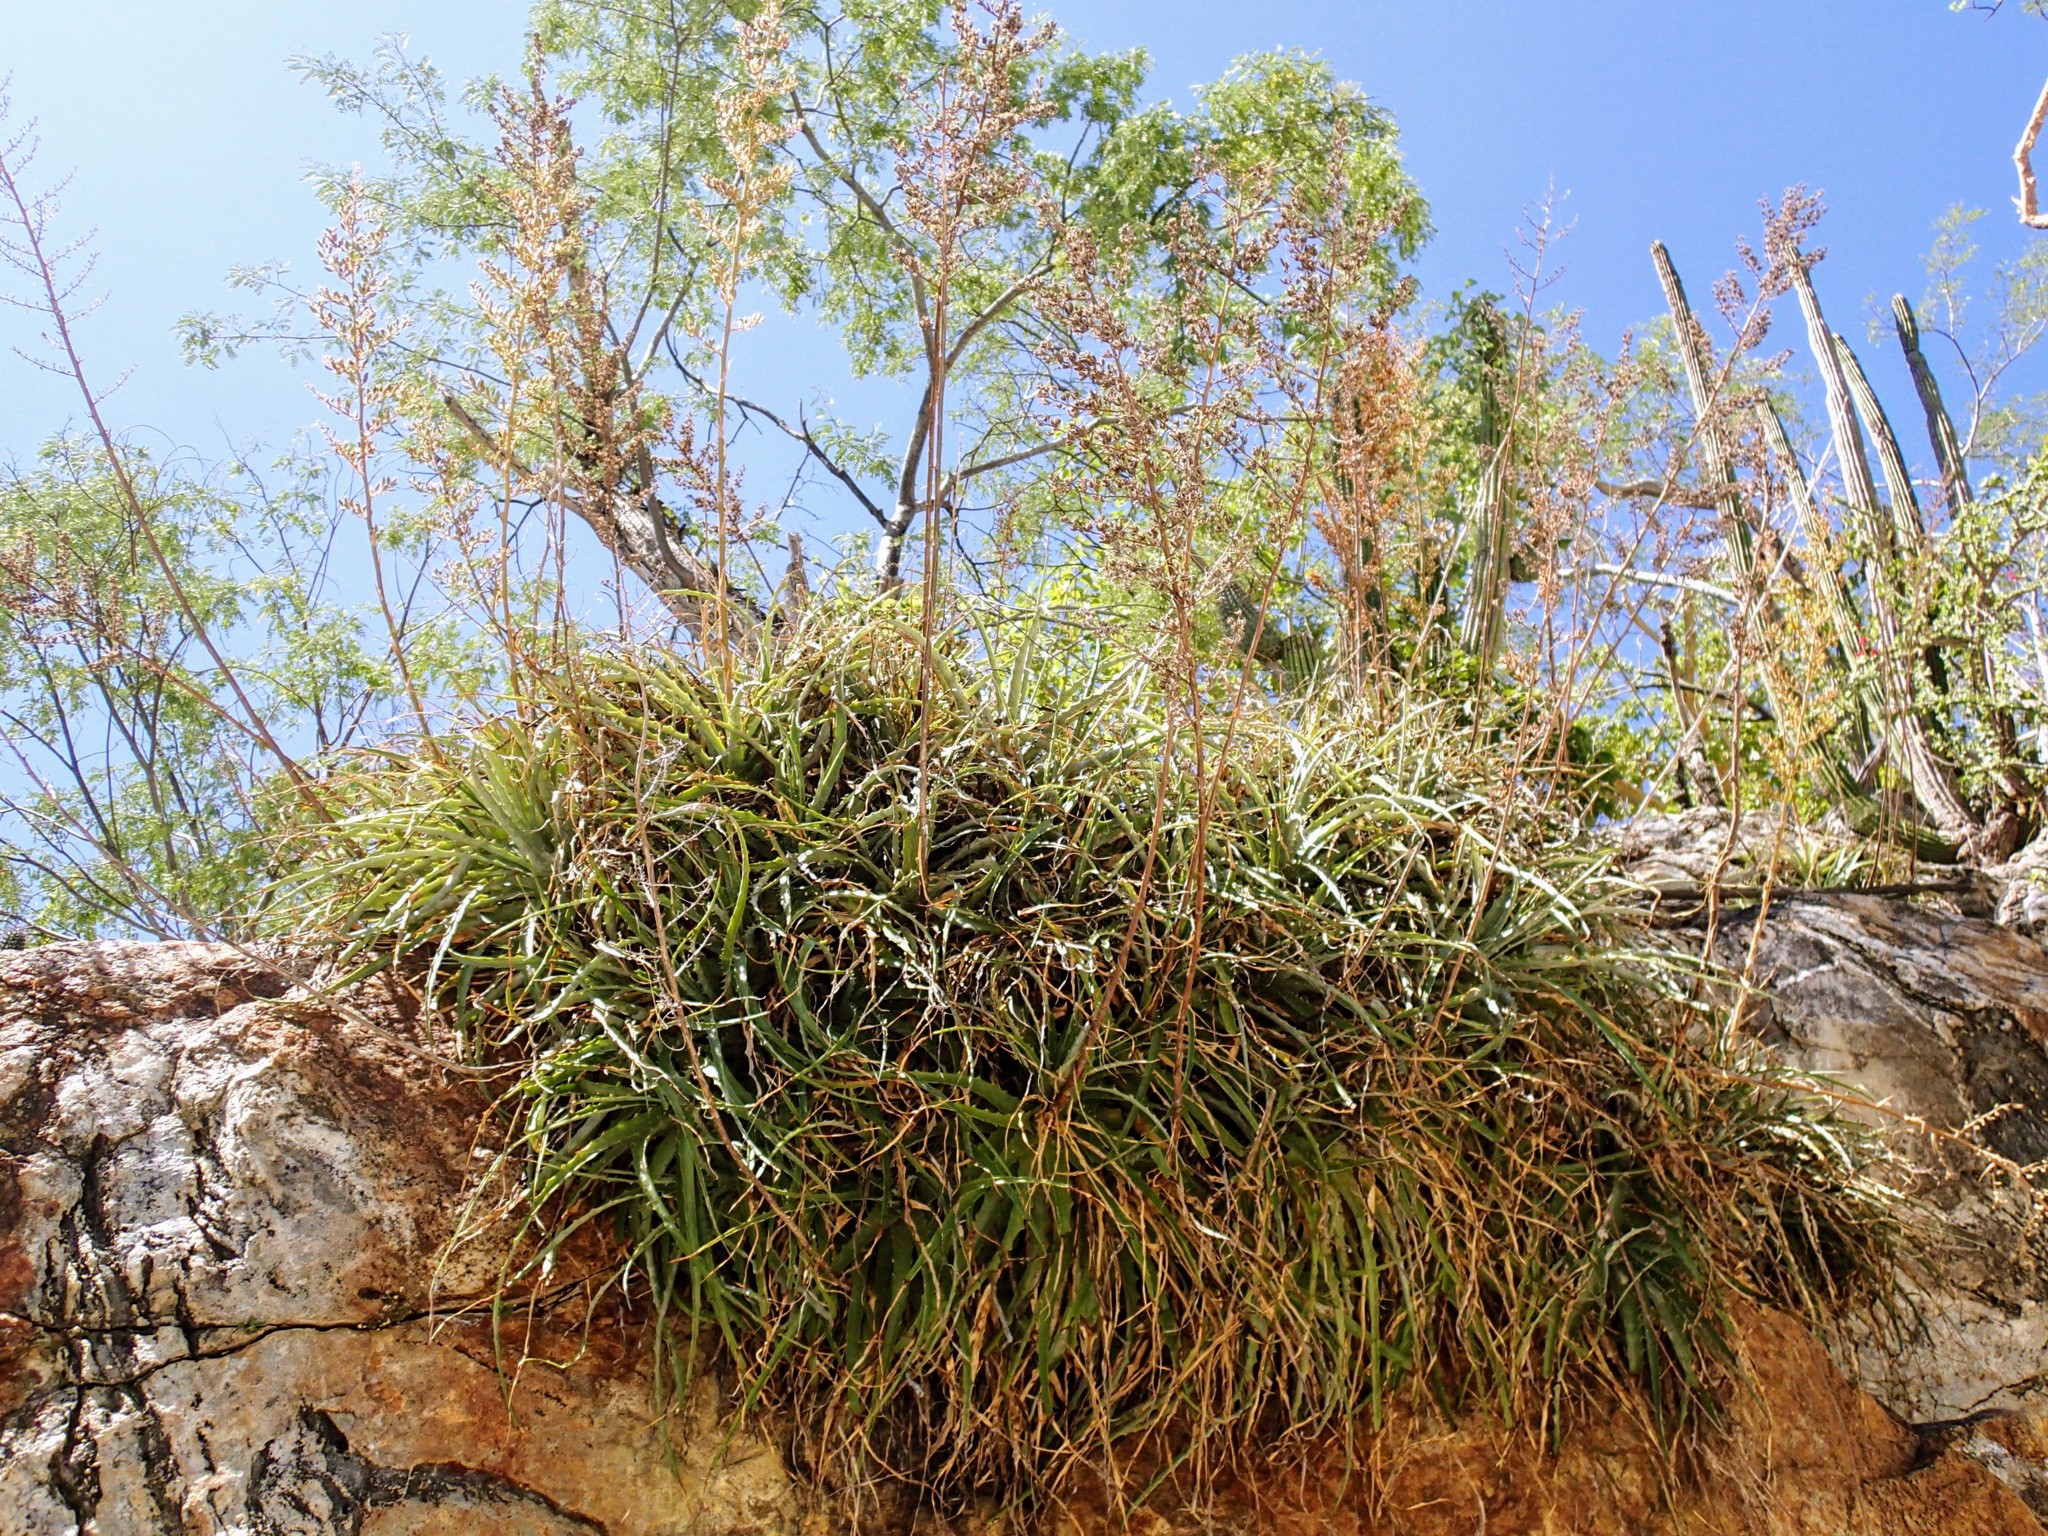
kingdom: Plantae
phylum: Tracheophyta
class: Liliopsida
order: Poales
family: Bromeliaceae
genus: Hechtia
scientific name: Hechtia montana
